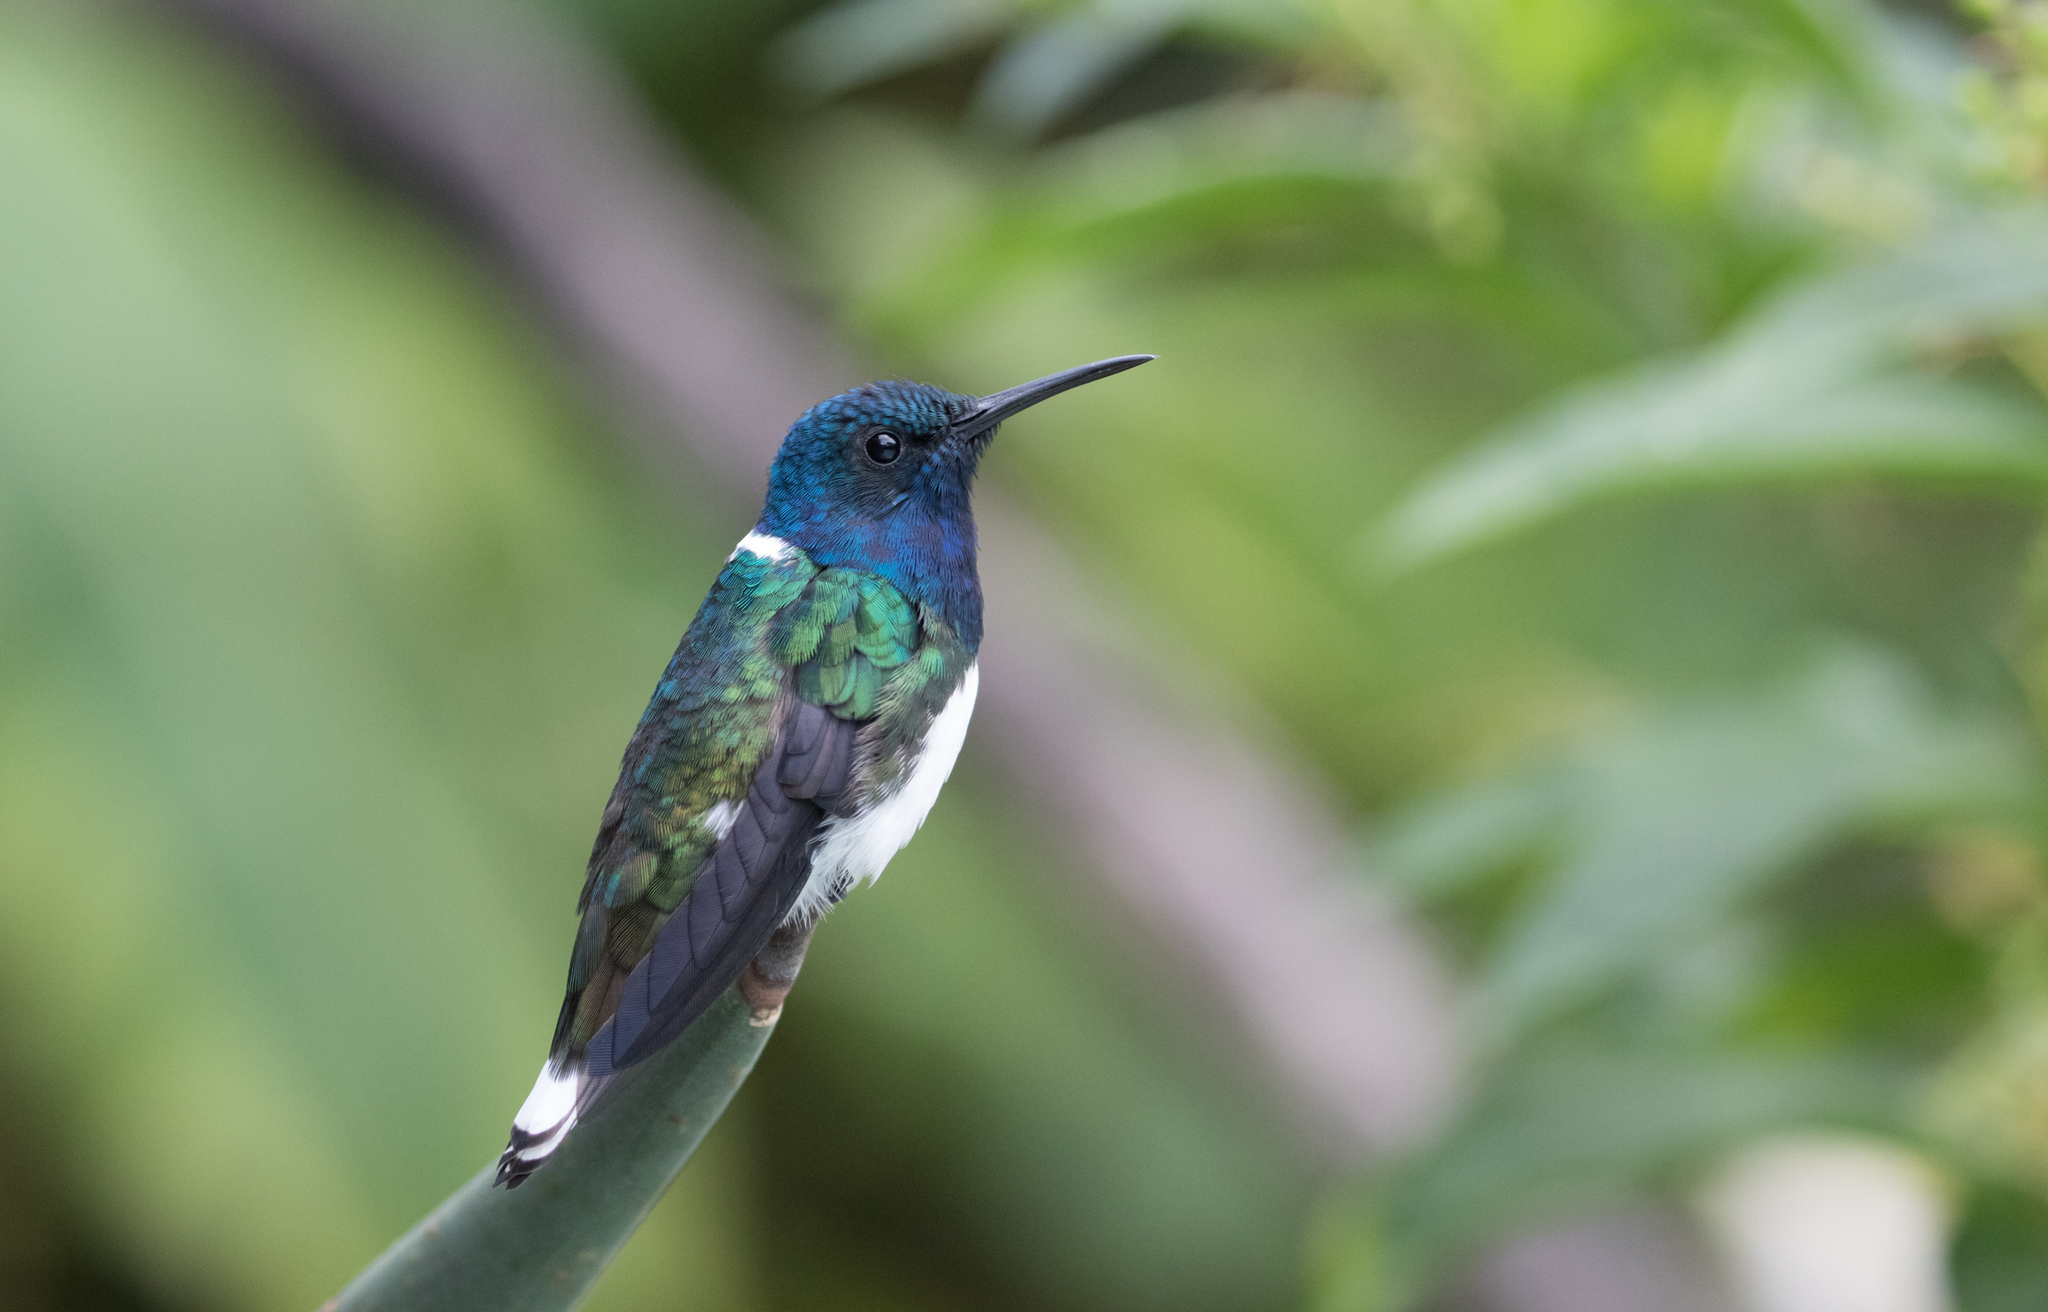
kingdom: Animalia
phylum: Chordata
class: Aves
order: Apodiformes
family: Trochilidae
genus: Florisuga
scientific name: Florisuga mellivora
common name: White-necked jacobin
